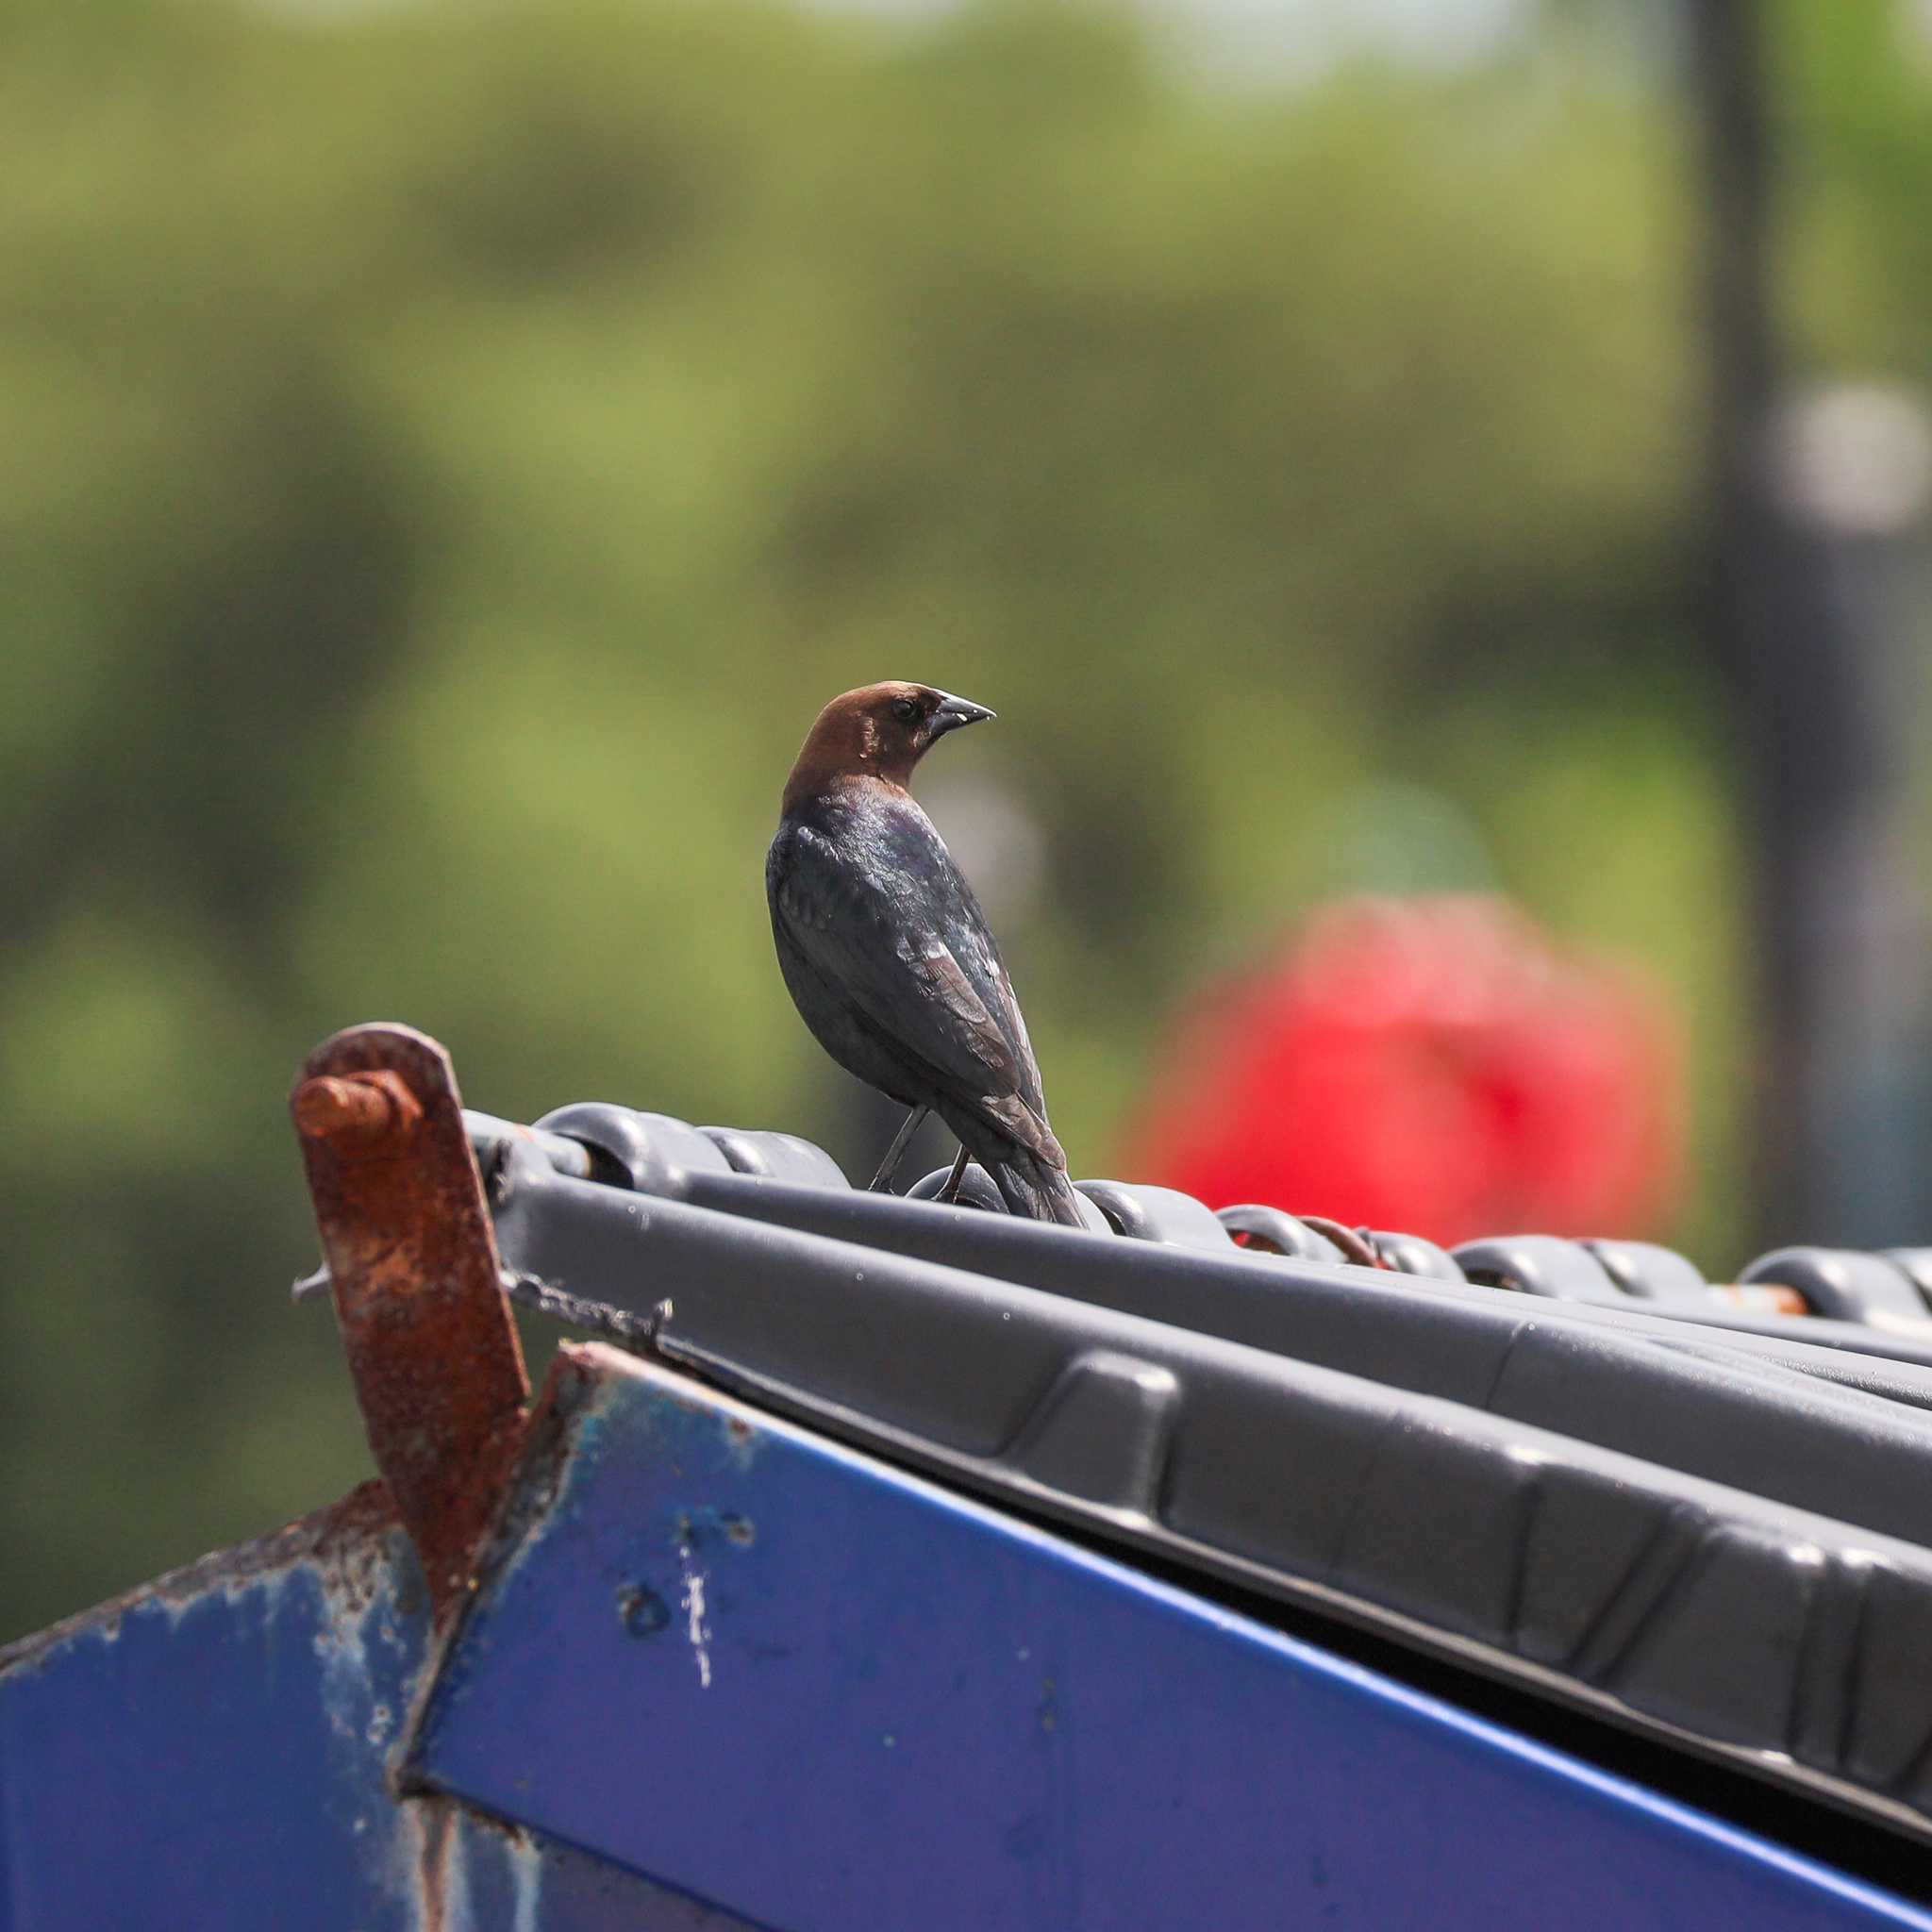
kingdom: Animalia
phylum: Chordata
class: Aves
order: Passeriformes
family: Icteridae
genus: Molothrus
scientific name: Molothrus ater
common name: Brown-headed cowbird
